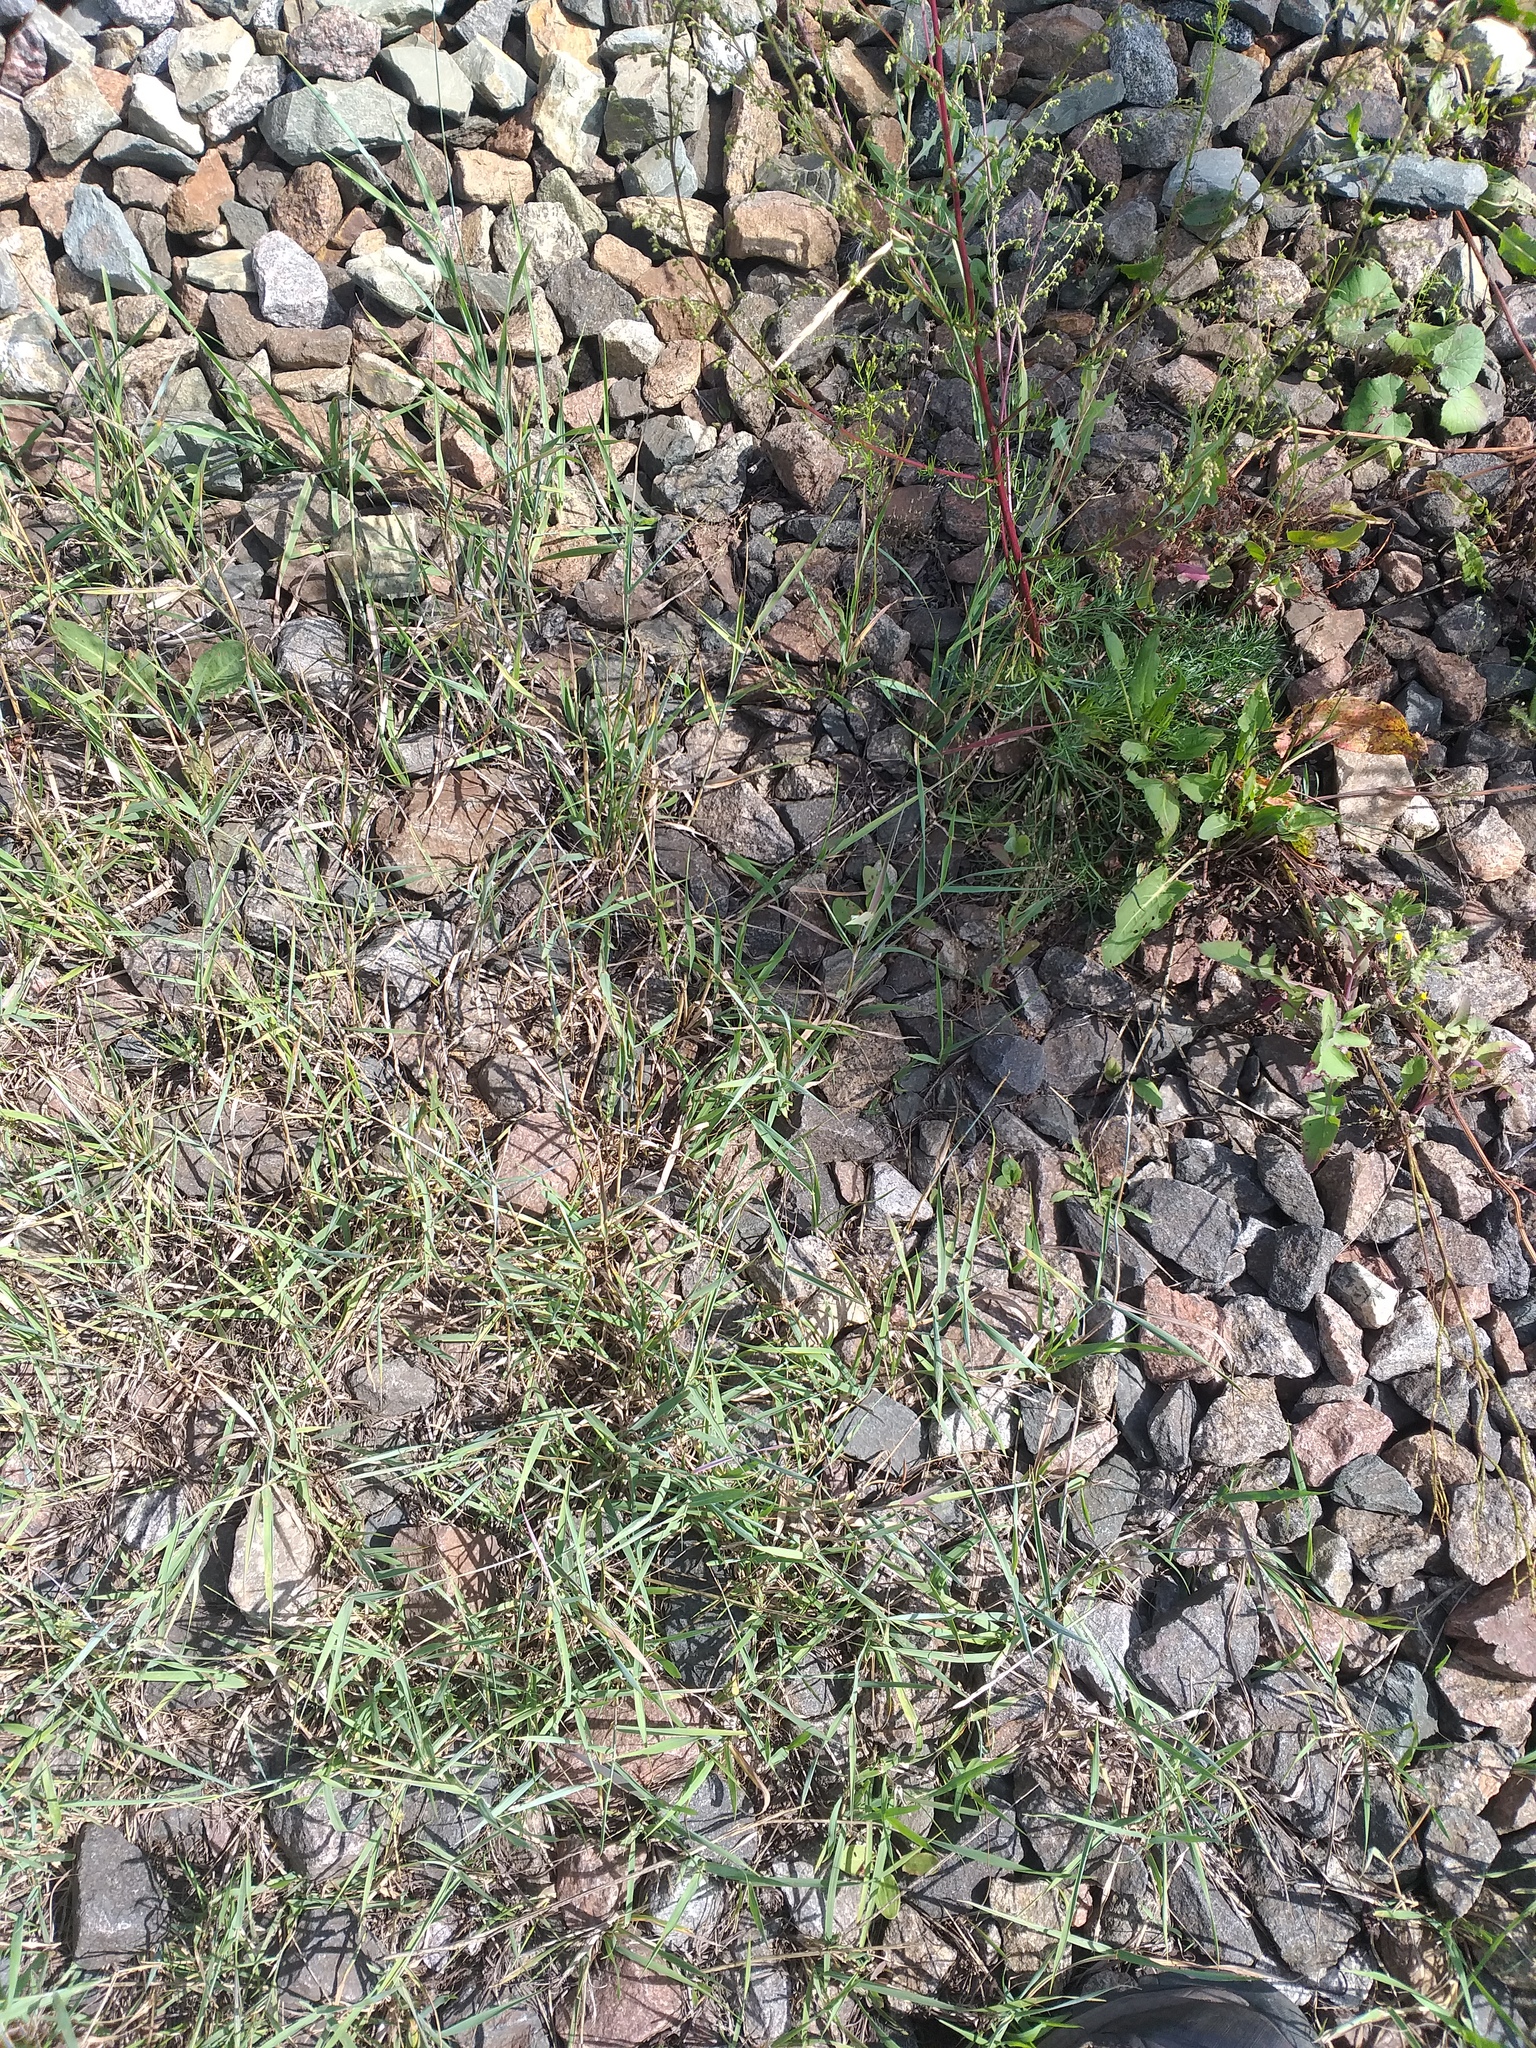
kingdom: Plantae
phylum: Tracheophyta
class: Liliopsida
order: Poales
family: Poaceae
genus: Elymus
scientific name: Elymus repens
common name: Quackgrass
